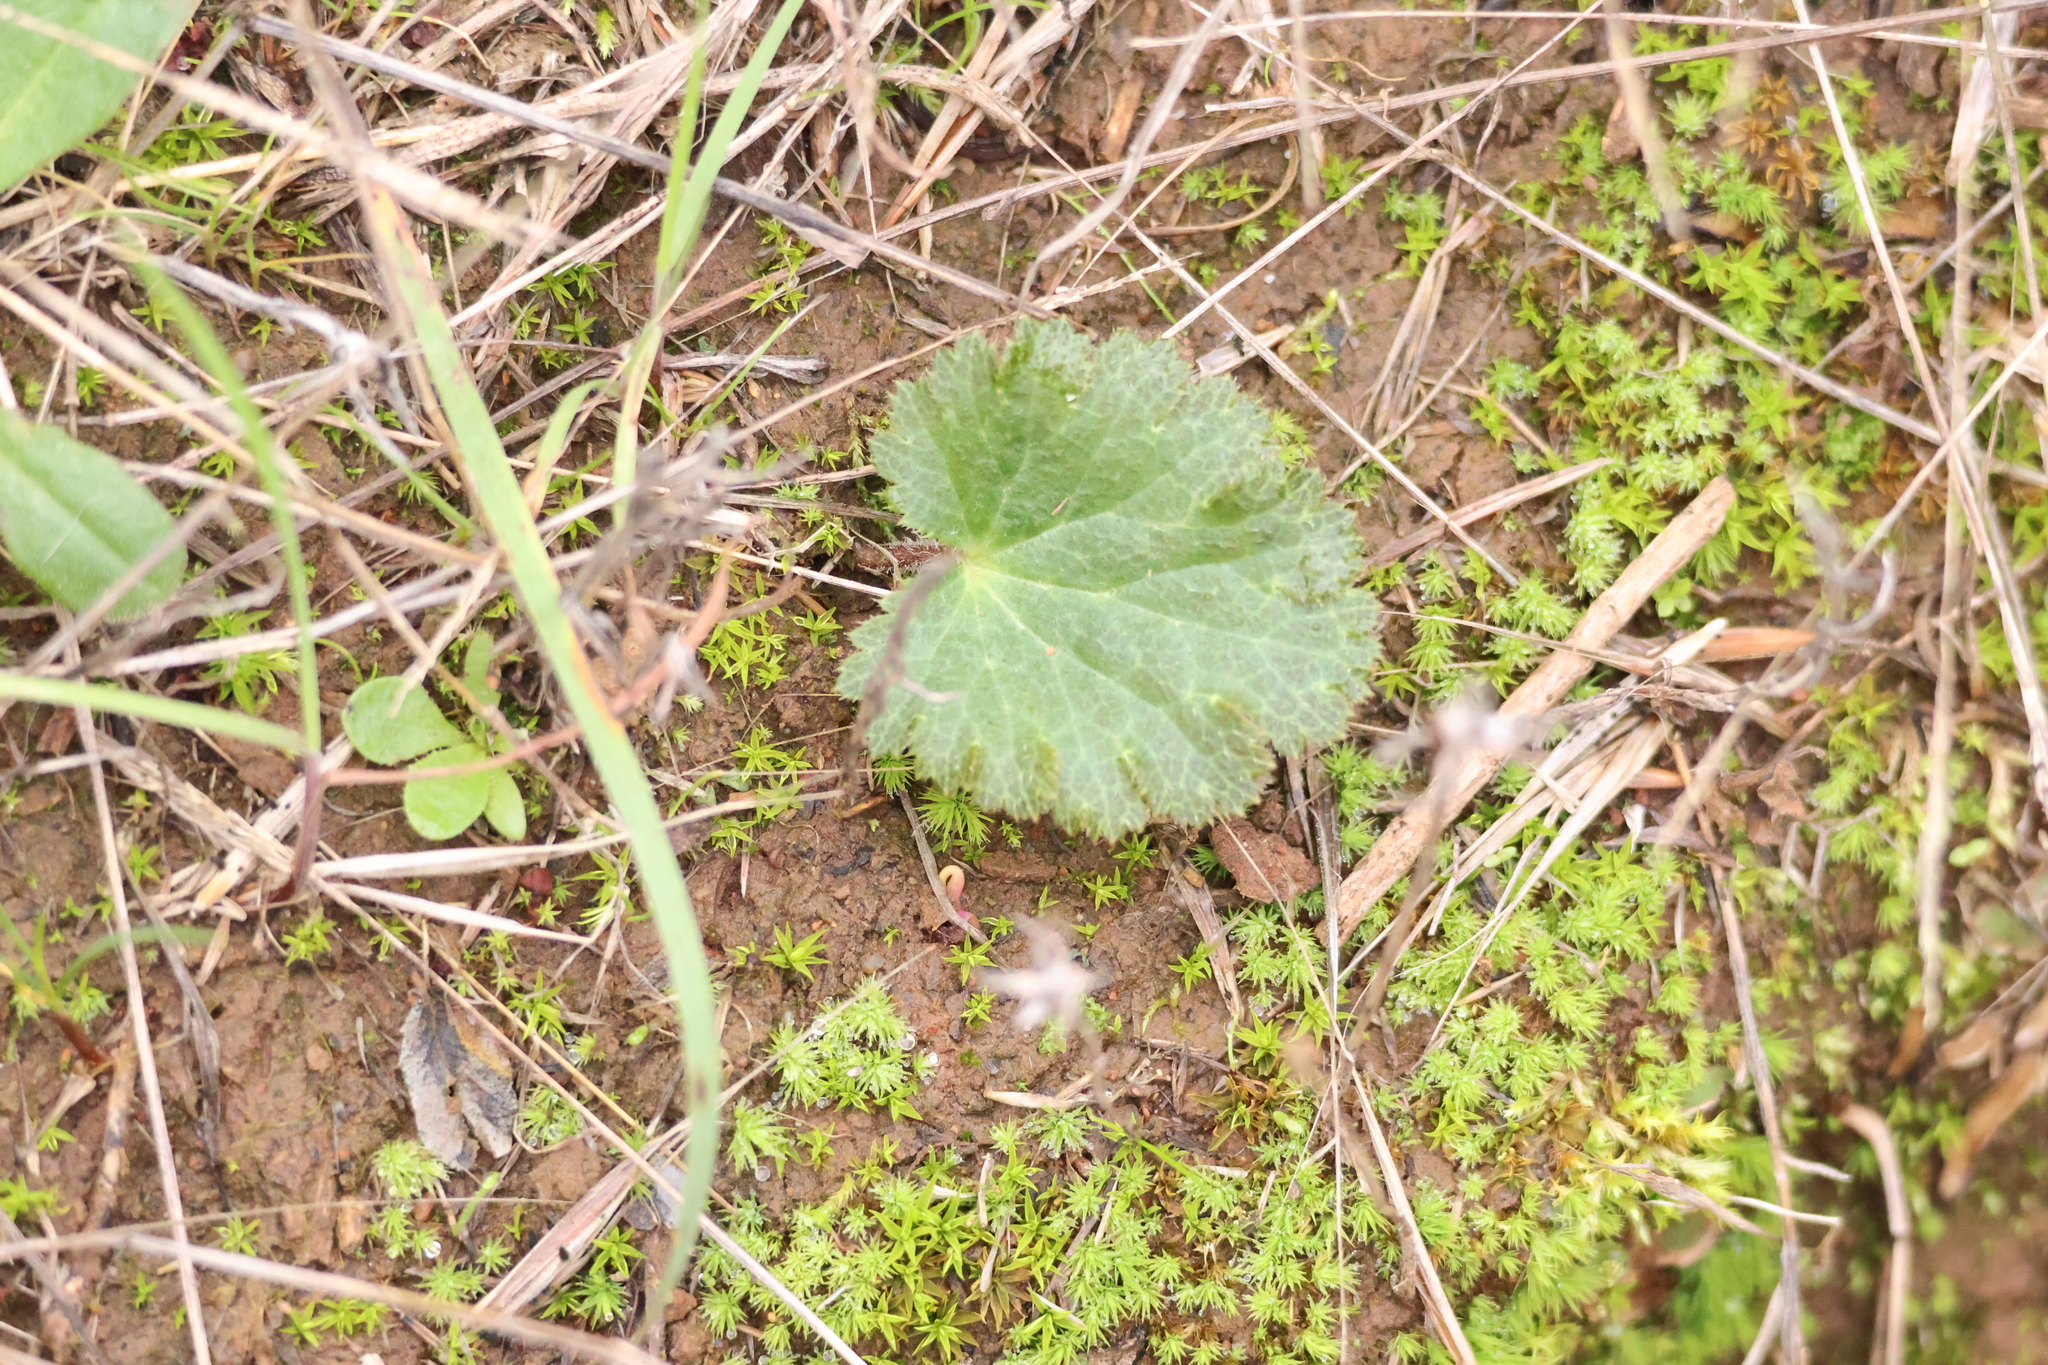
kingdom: Plantae
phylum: Tracheophyta
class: Magnoliopsida
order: Saxifragales
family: Saxifragaceae
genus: Jepsonia
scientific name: Jepsonia parryi
